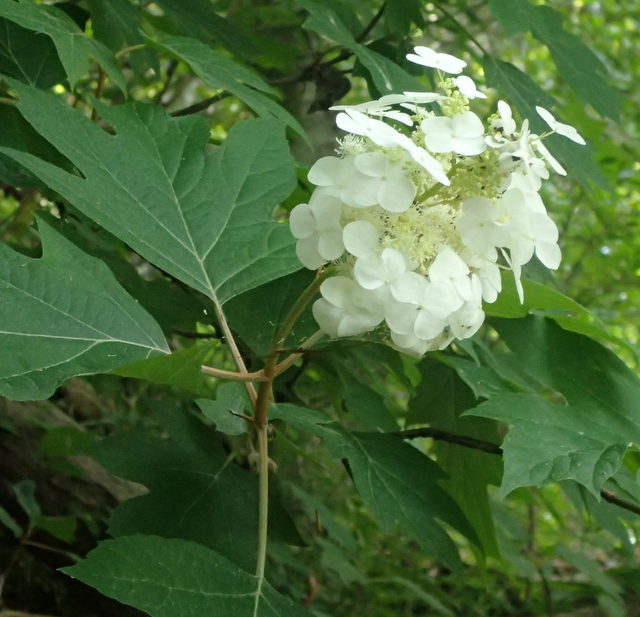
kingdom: Plantae
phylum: Tracheophyta
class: Magnoliopsida
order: Cornales
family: Hydrangeaceae
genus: Hydrangea
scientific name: Hydrangea quercifolia
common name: Oak-leaf hydrangea
